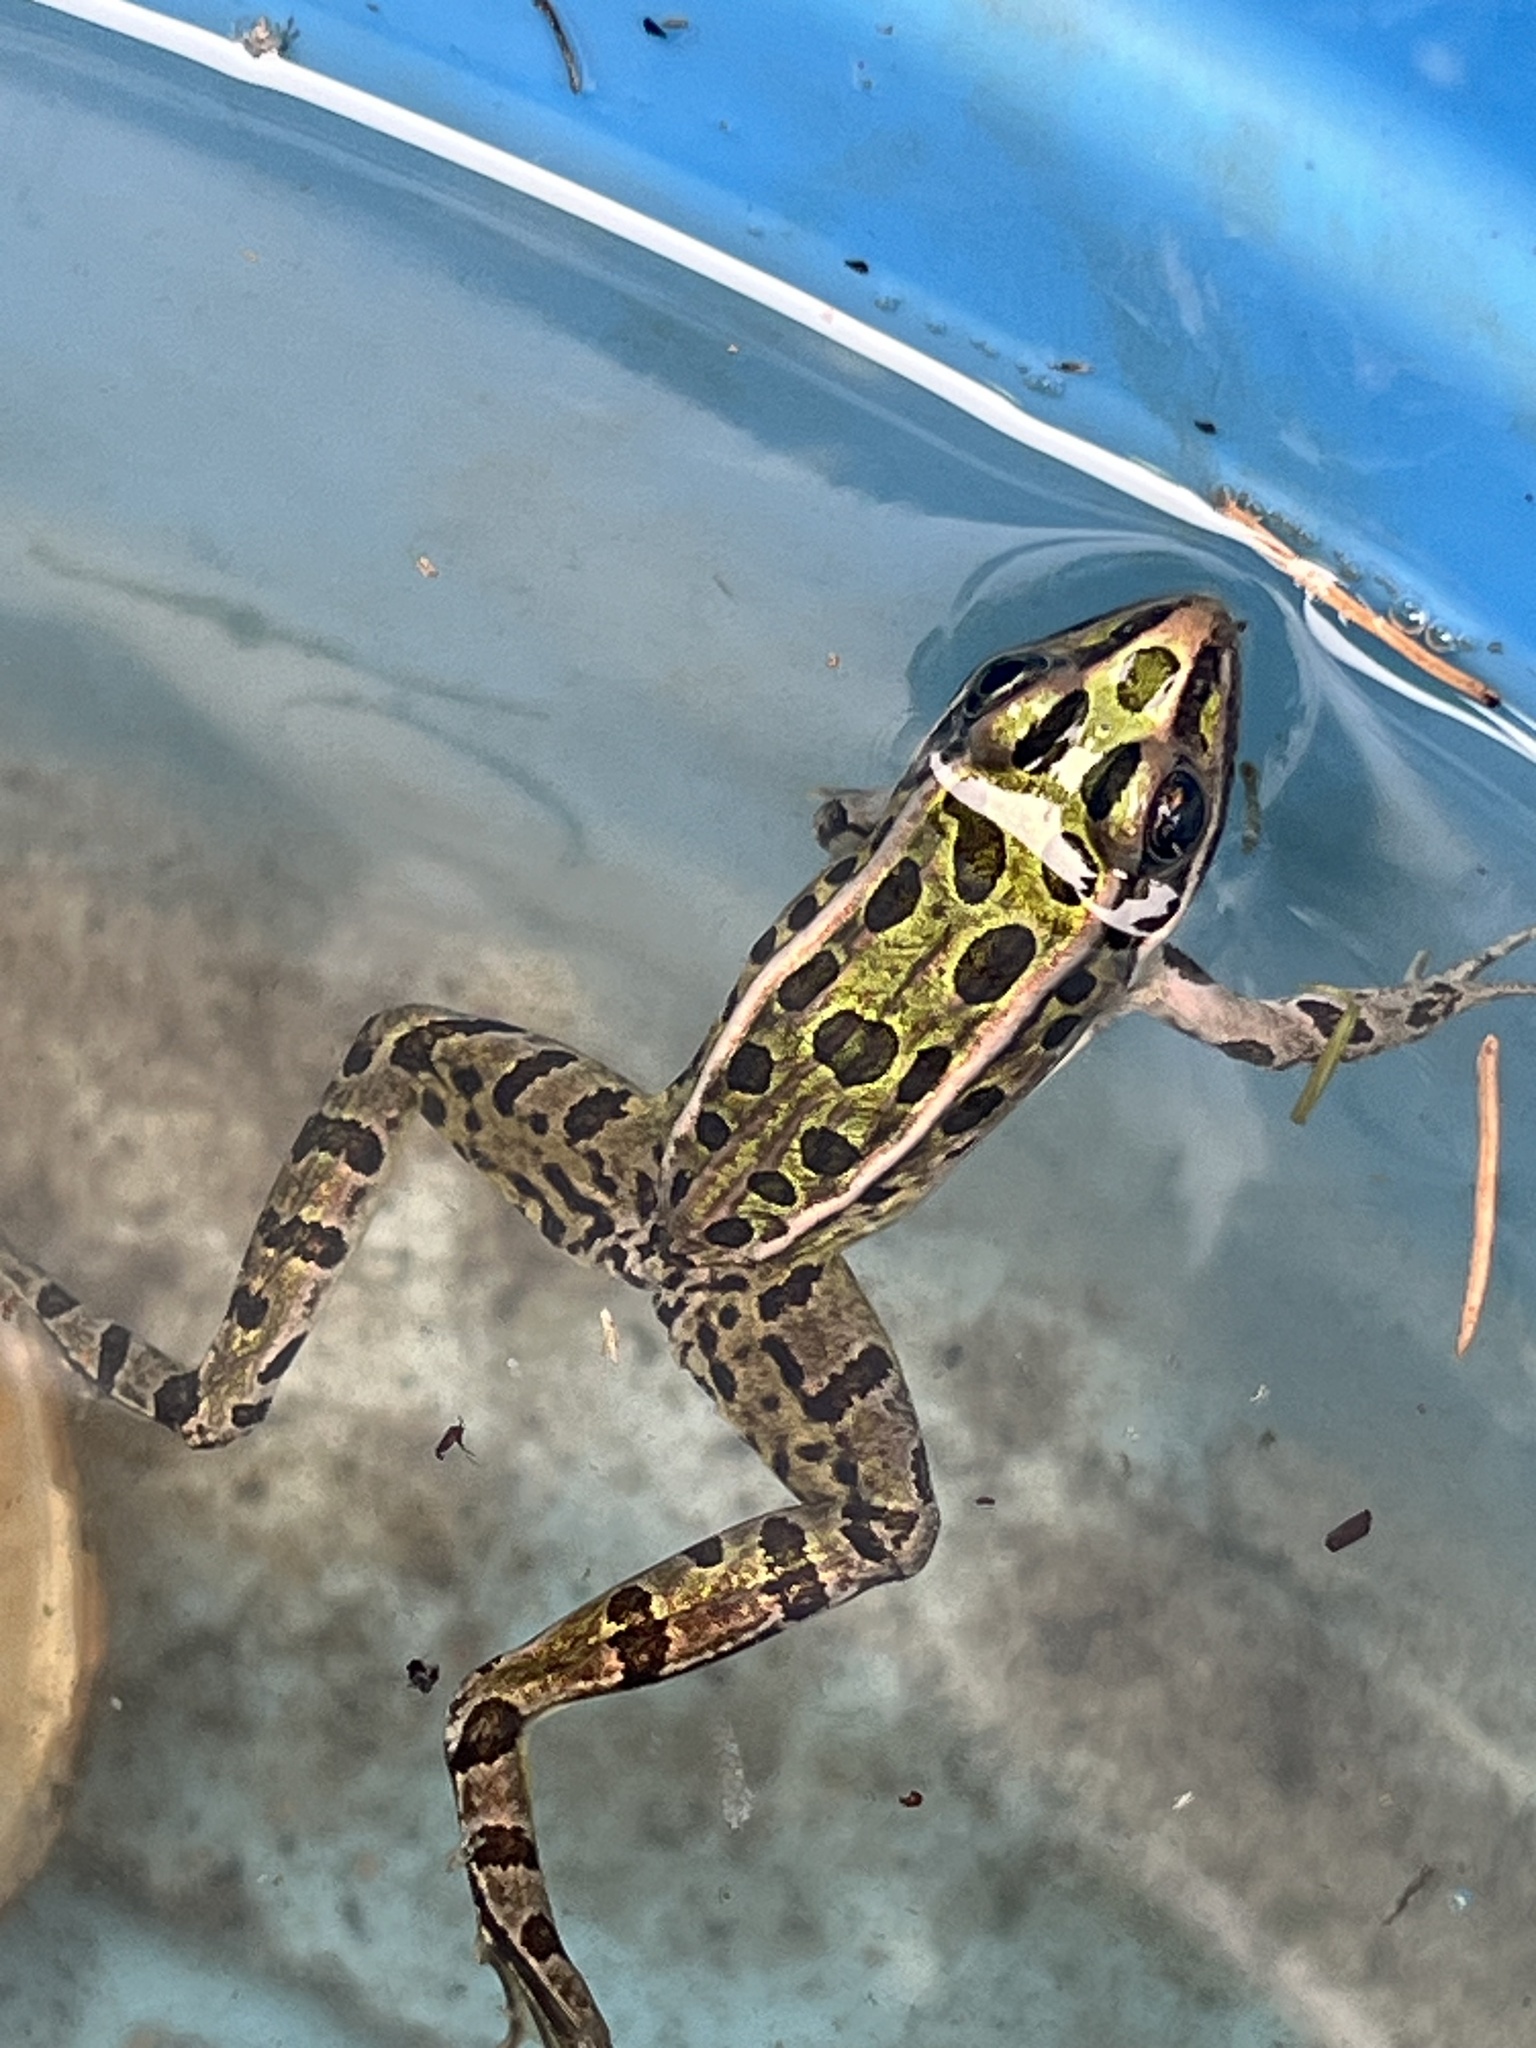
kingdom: Animalia
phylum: Chordata
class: Amphibia
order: Anura
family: Ranidae
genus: Lithobates
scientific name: Lithobates pipiens
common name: Northern leopard frog
